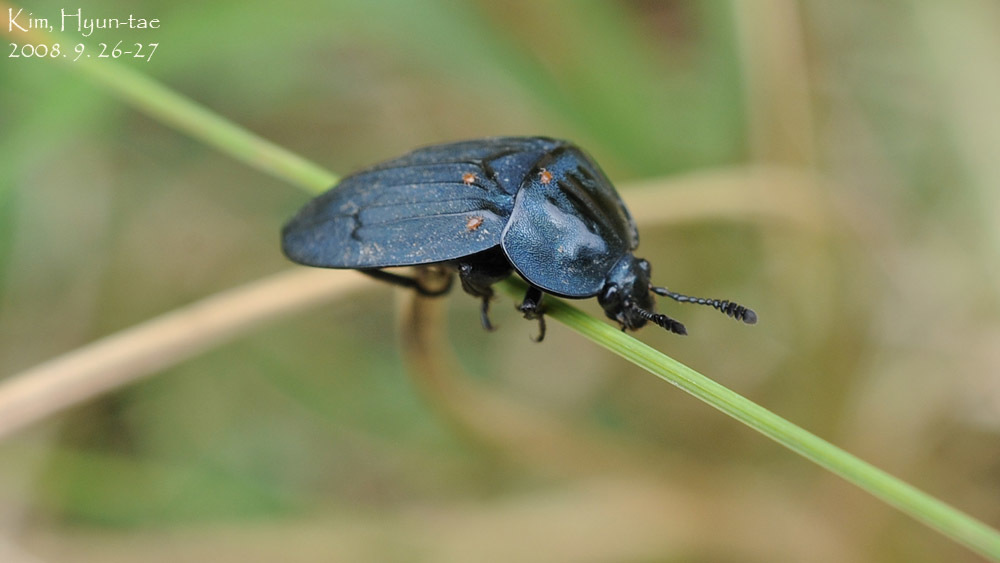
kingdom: Animalia
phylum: Arthropoda
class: Insecta
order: Coleoptera
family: Silphidae
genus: Eusilpha
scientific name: Eusilpha
